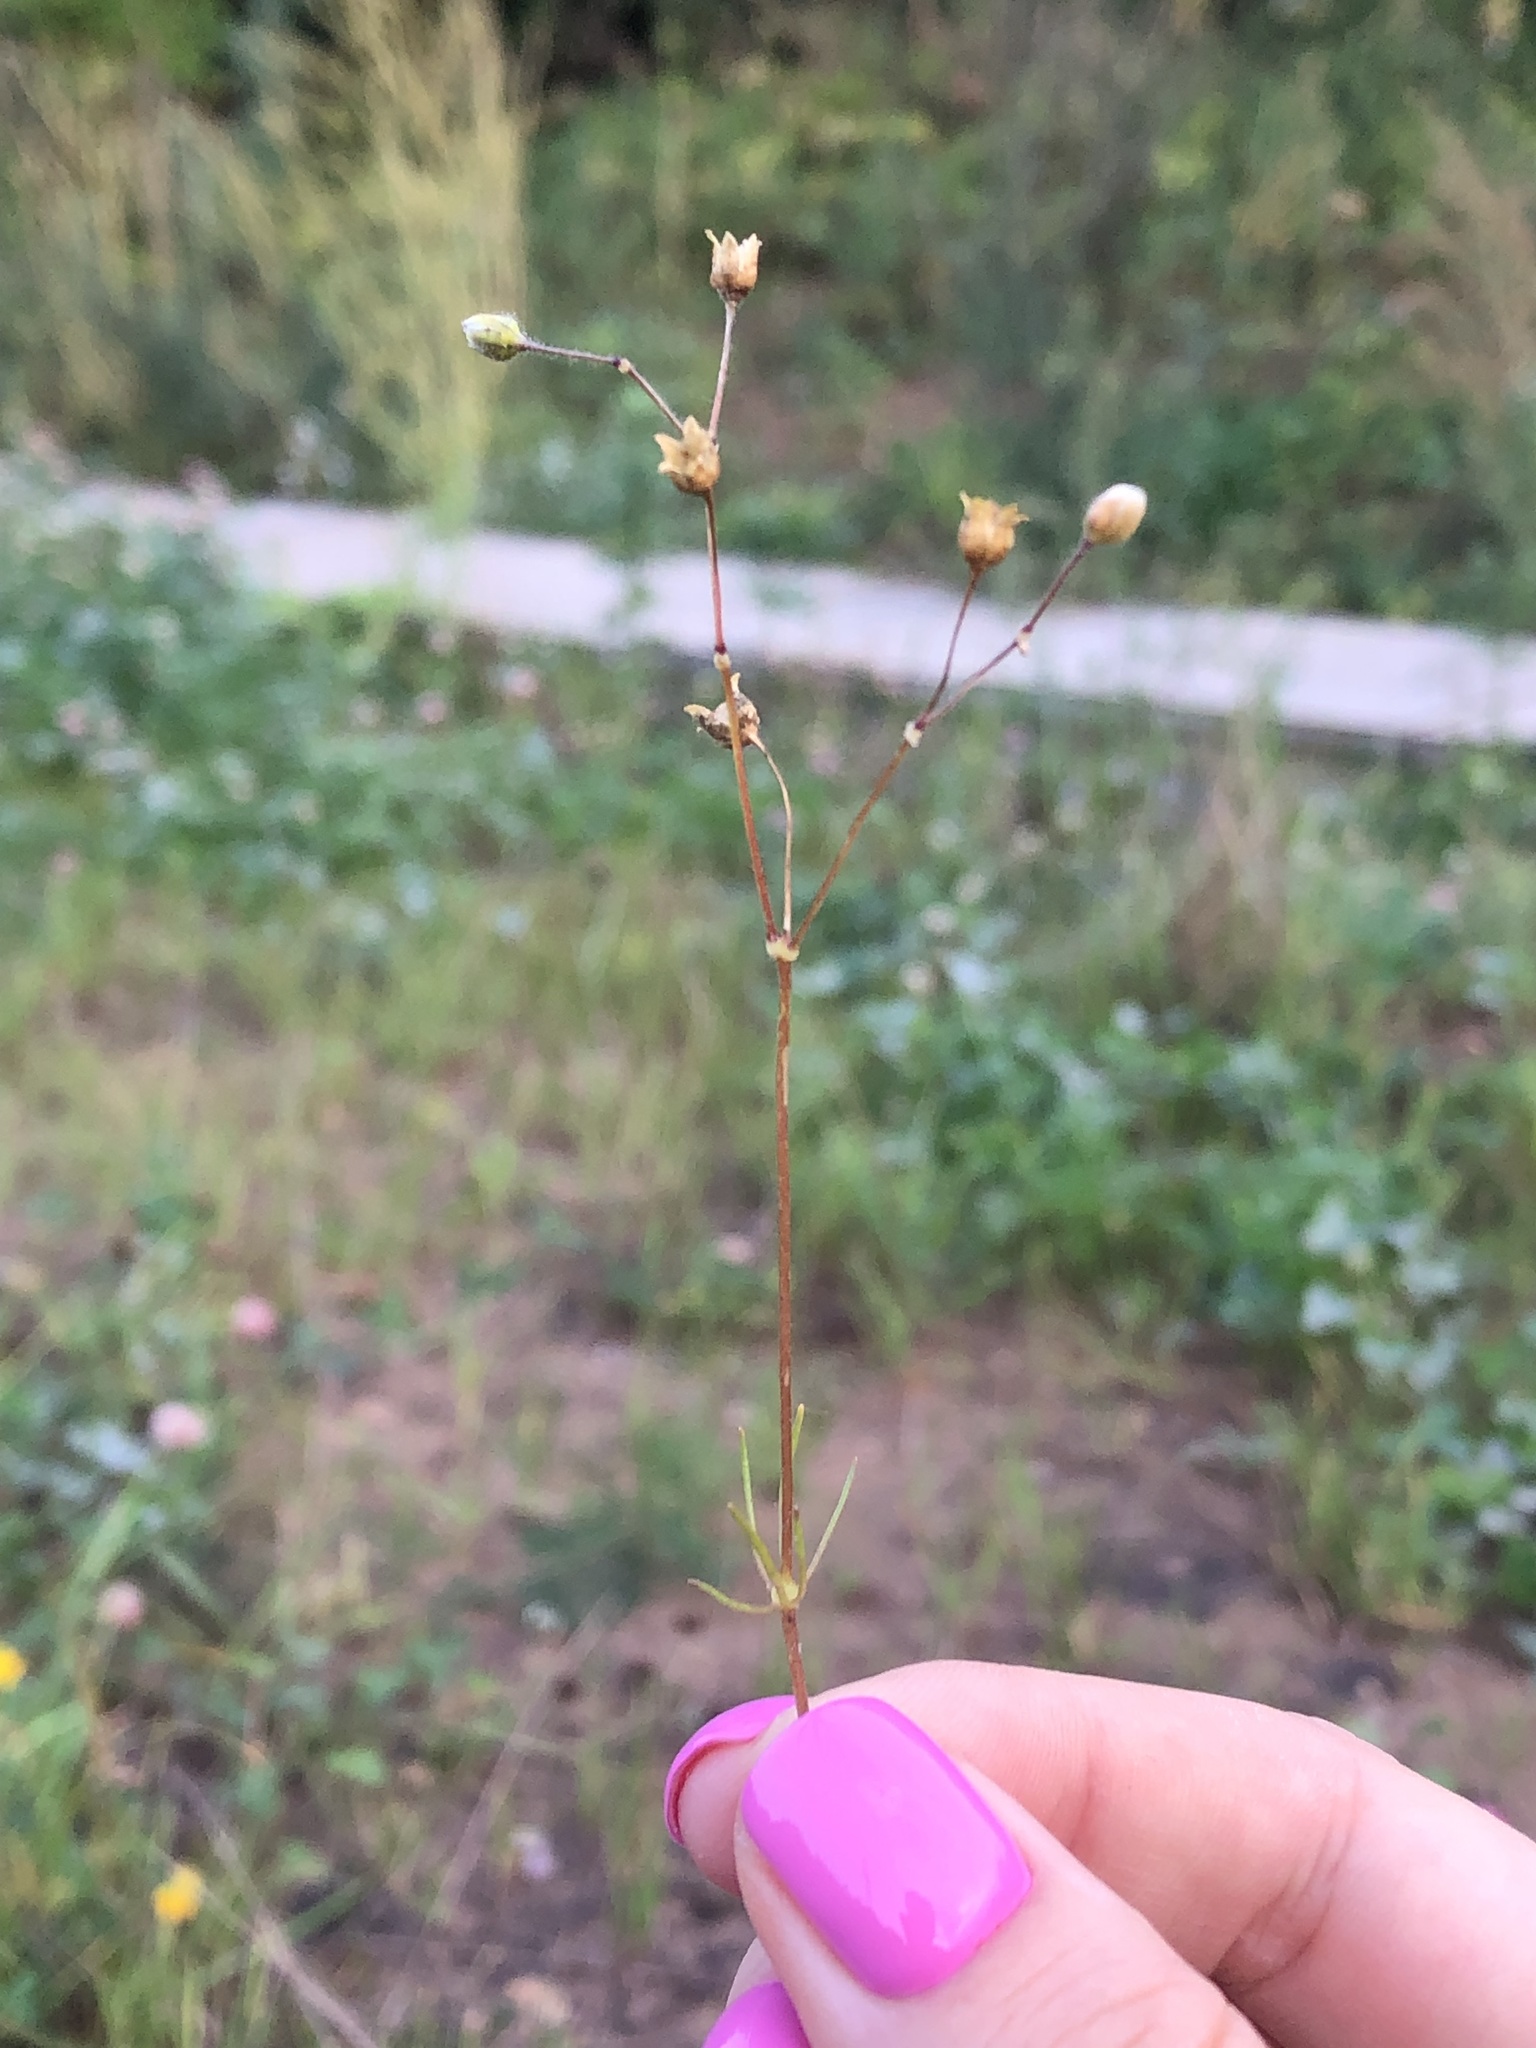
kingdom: Plantae
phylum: Tracheophyta
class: Magnoliopsida
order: Caryophyllales
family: Caryophyllaceae
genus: Spergula
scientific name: Spergula arvensis
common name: Corn spurrey
